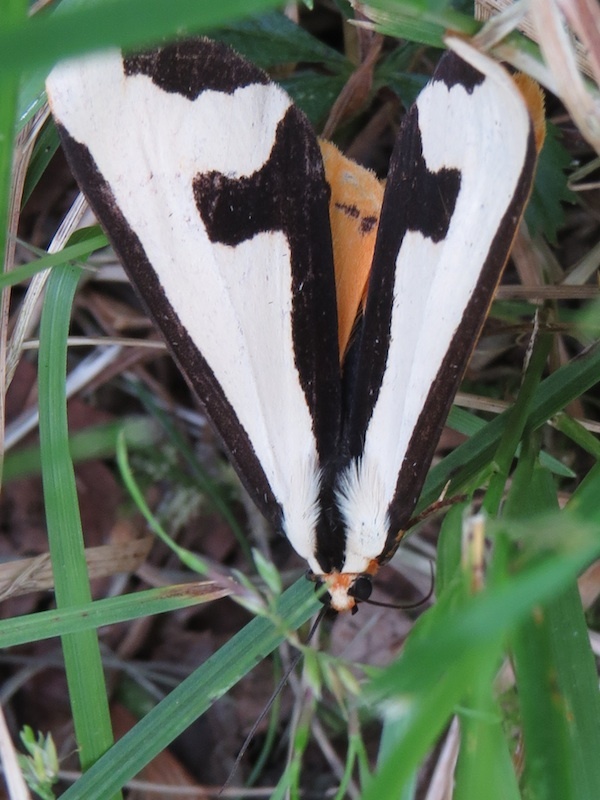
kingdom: Animalia
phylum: Arthropoda
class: Insecta
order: Lepidoptera
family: Erebidae
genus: Haploa
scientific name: Haploa clymene
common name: Clymene moth
